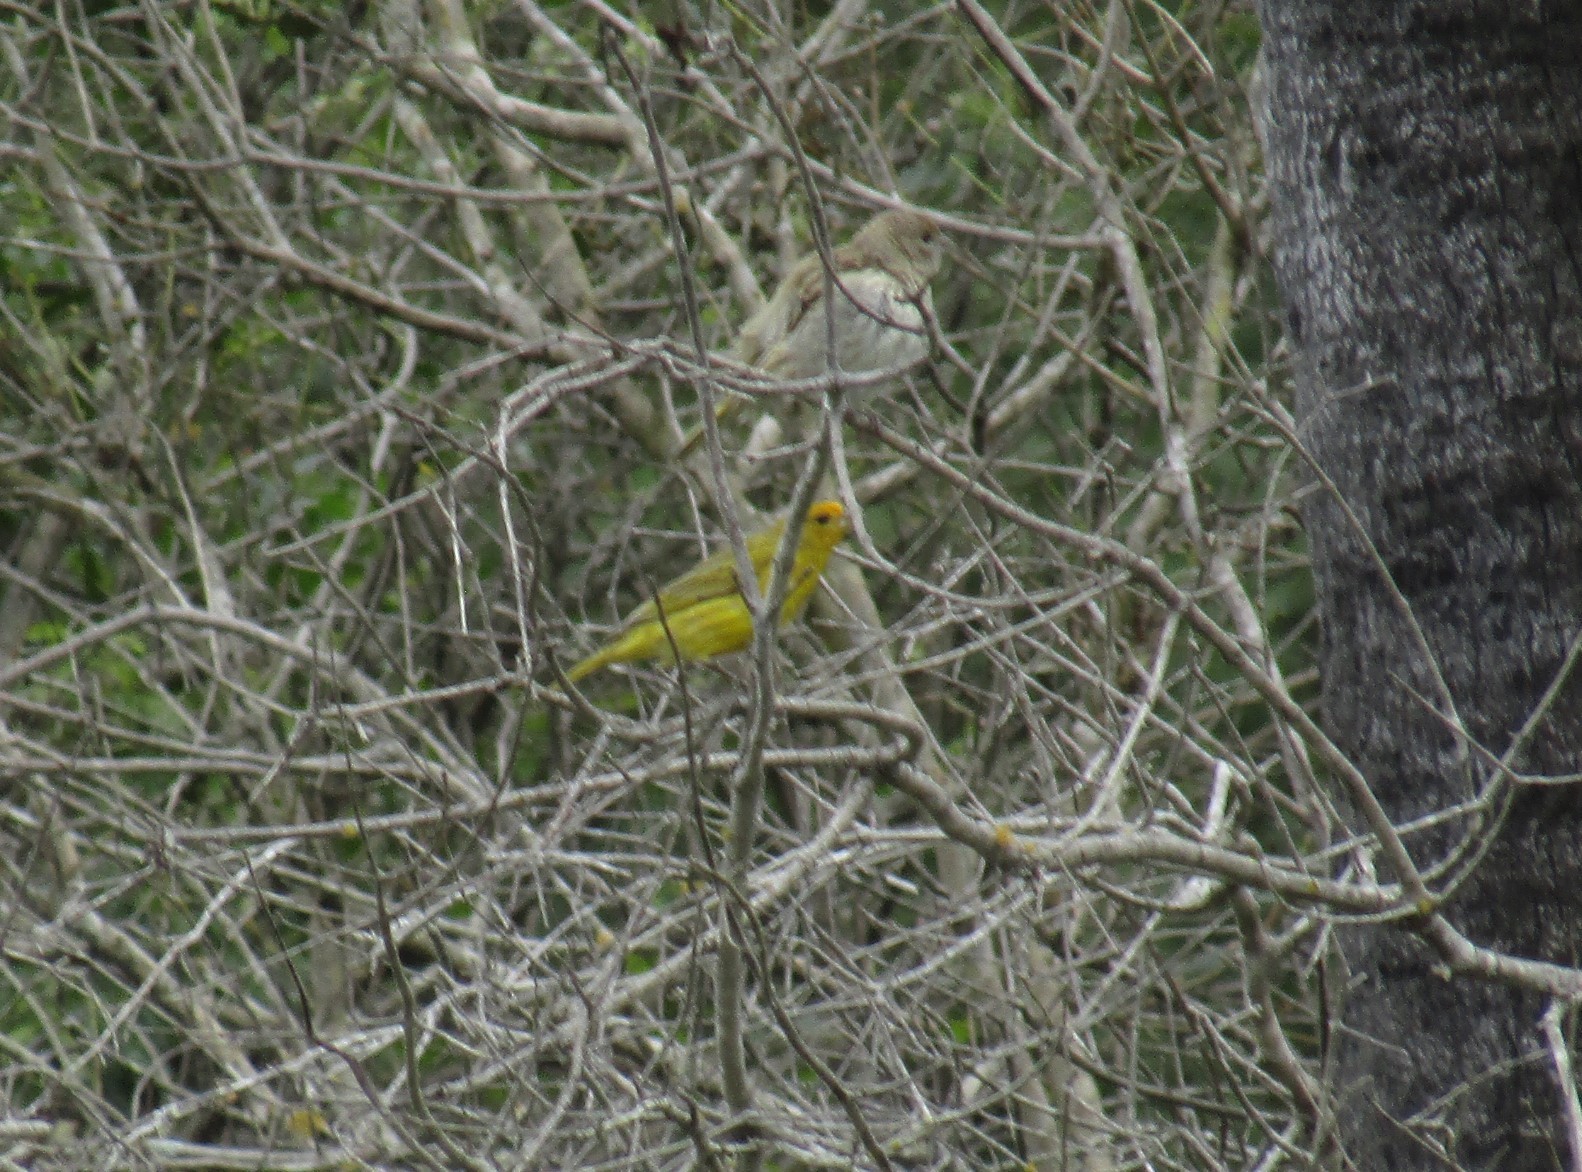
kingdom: Animalia
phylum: Chordata
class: Aves
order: Passeriformes
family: Thraupidae
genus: Sicalis
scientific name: Sicalis flaveola
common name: Saffron finch
